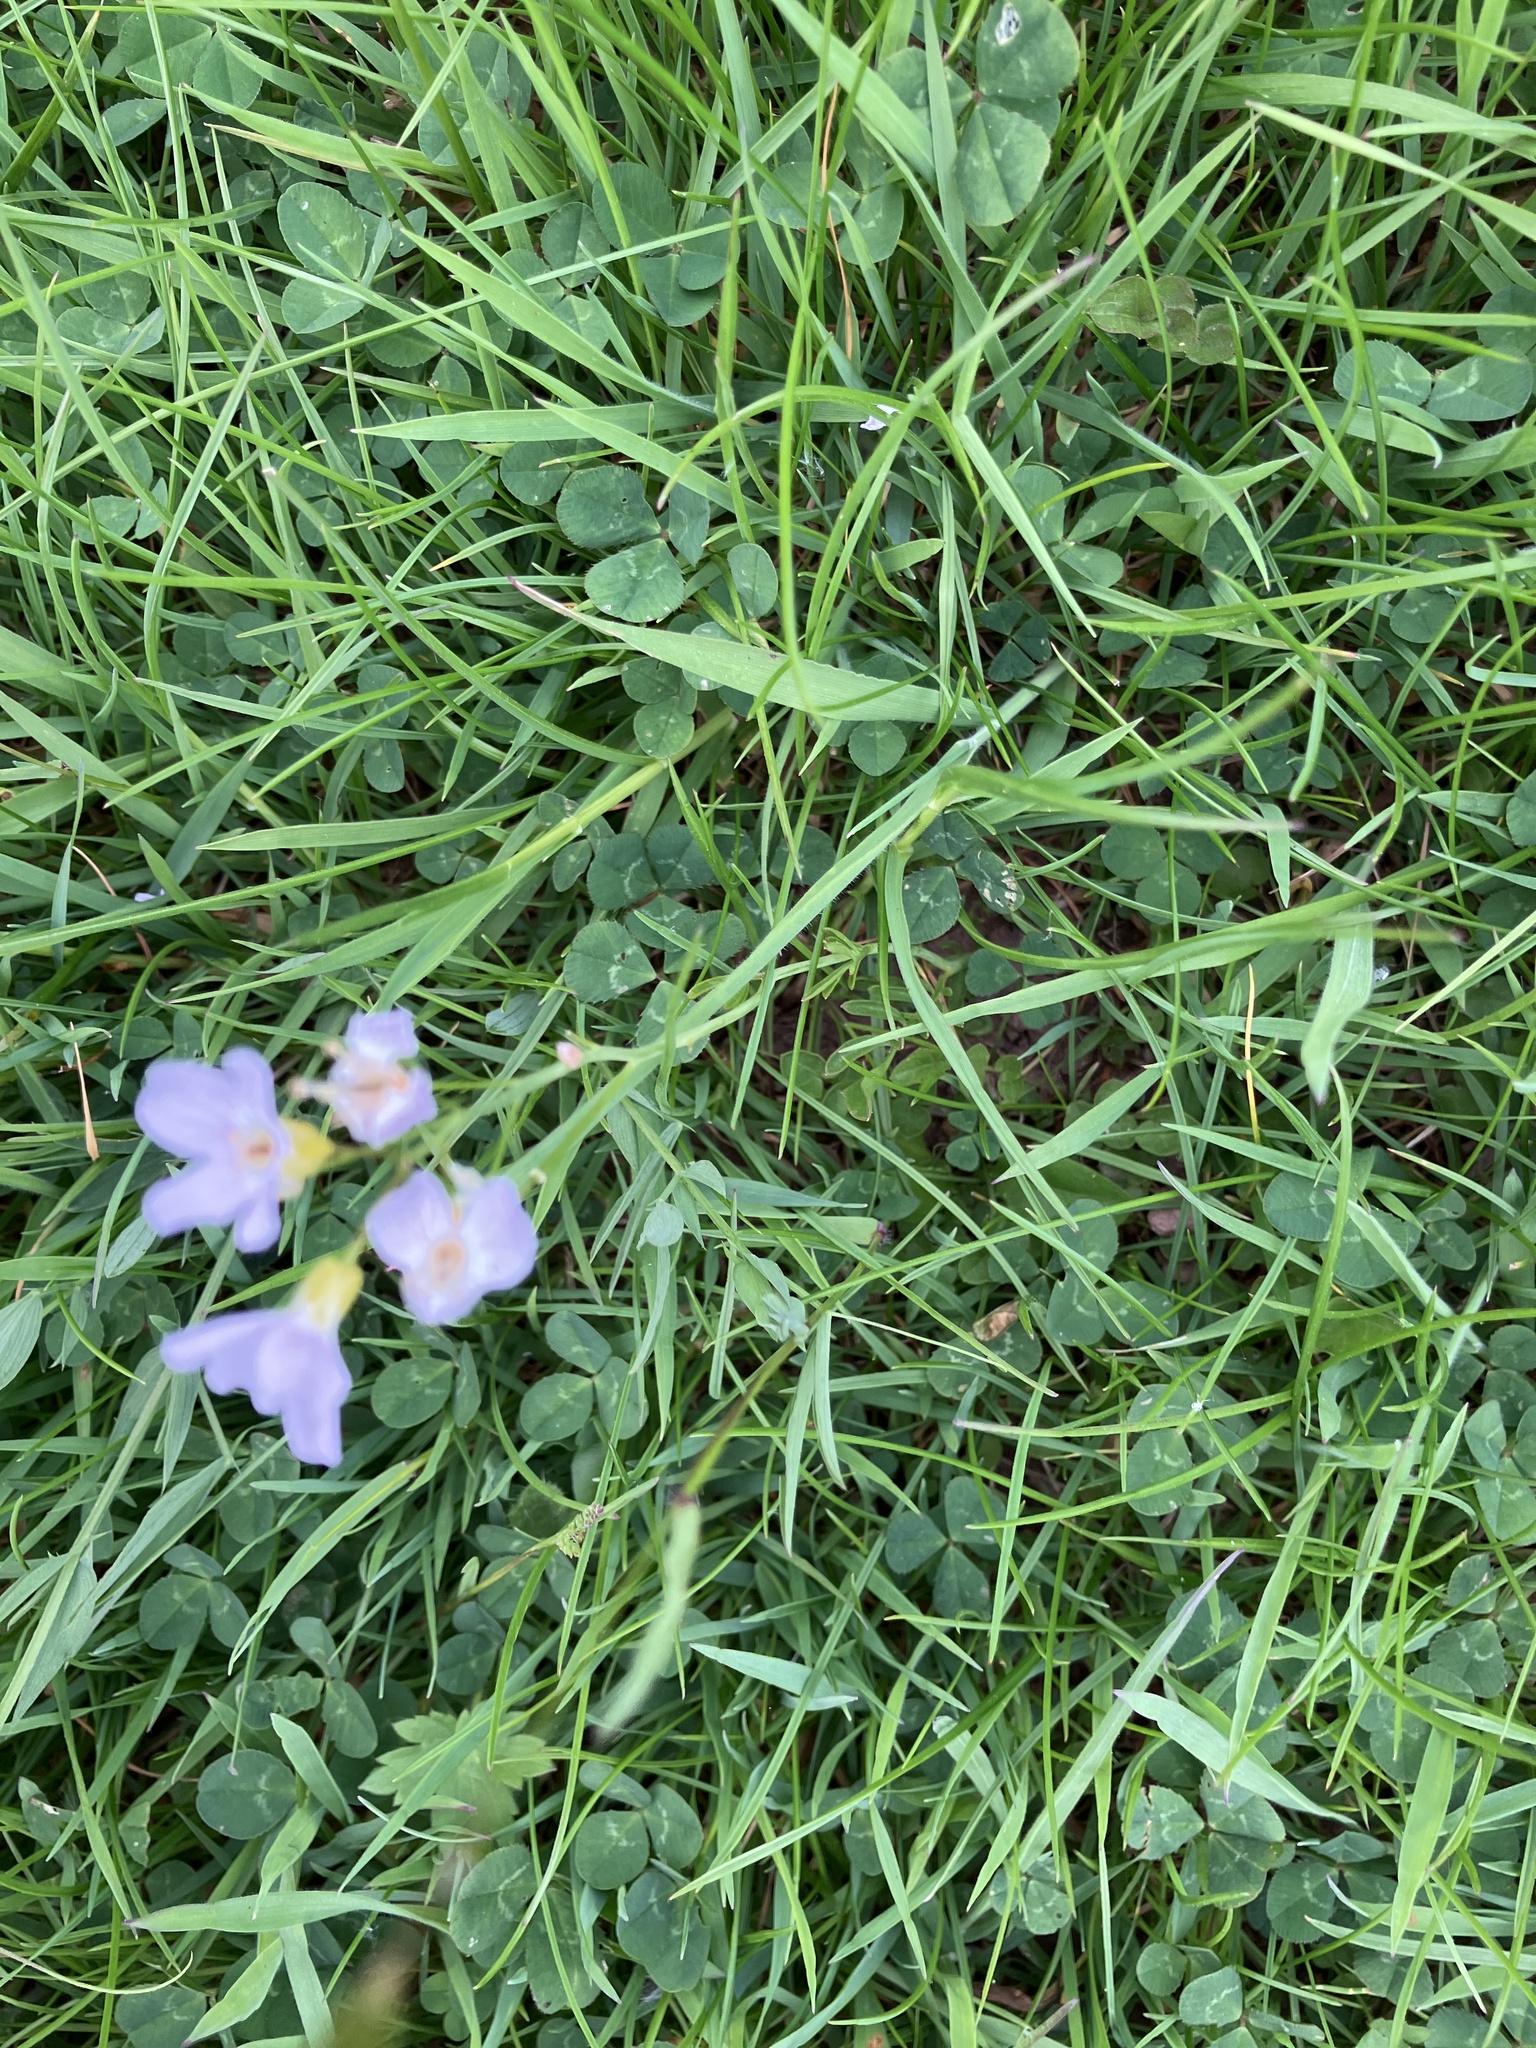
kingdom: Plantae
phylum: Tracheophyta
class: Magnoliopsida
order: Brassicales
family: Brassicaceae
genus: Cardamine
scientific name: Cardamine pratensis
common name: Cuckoo flower
